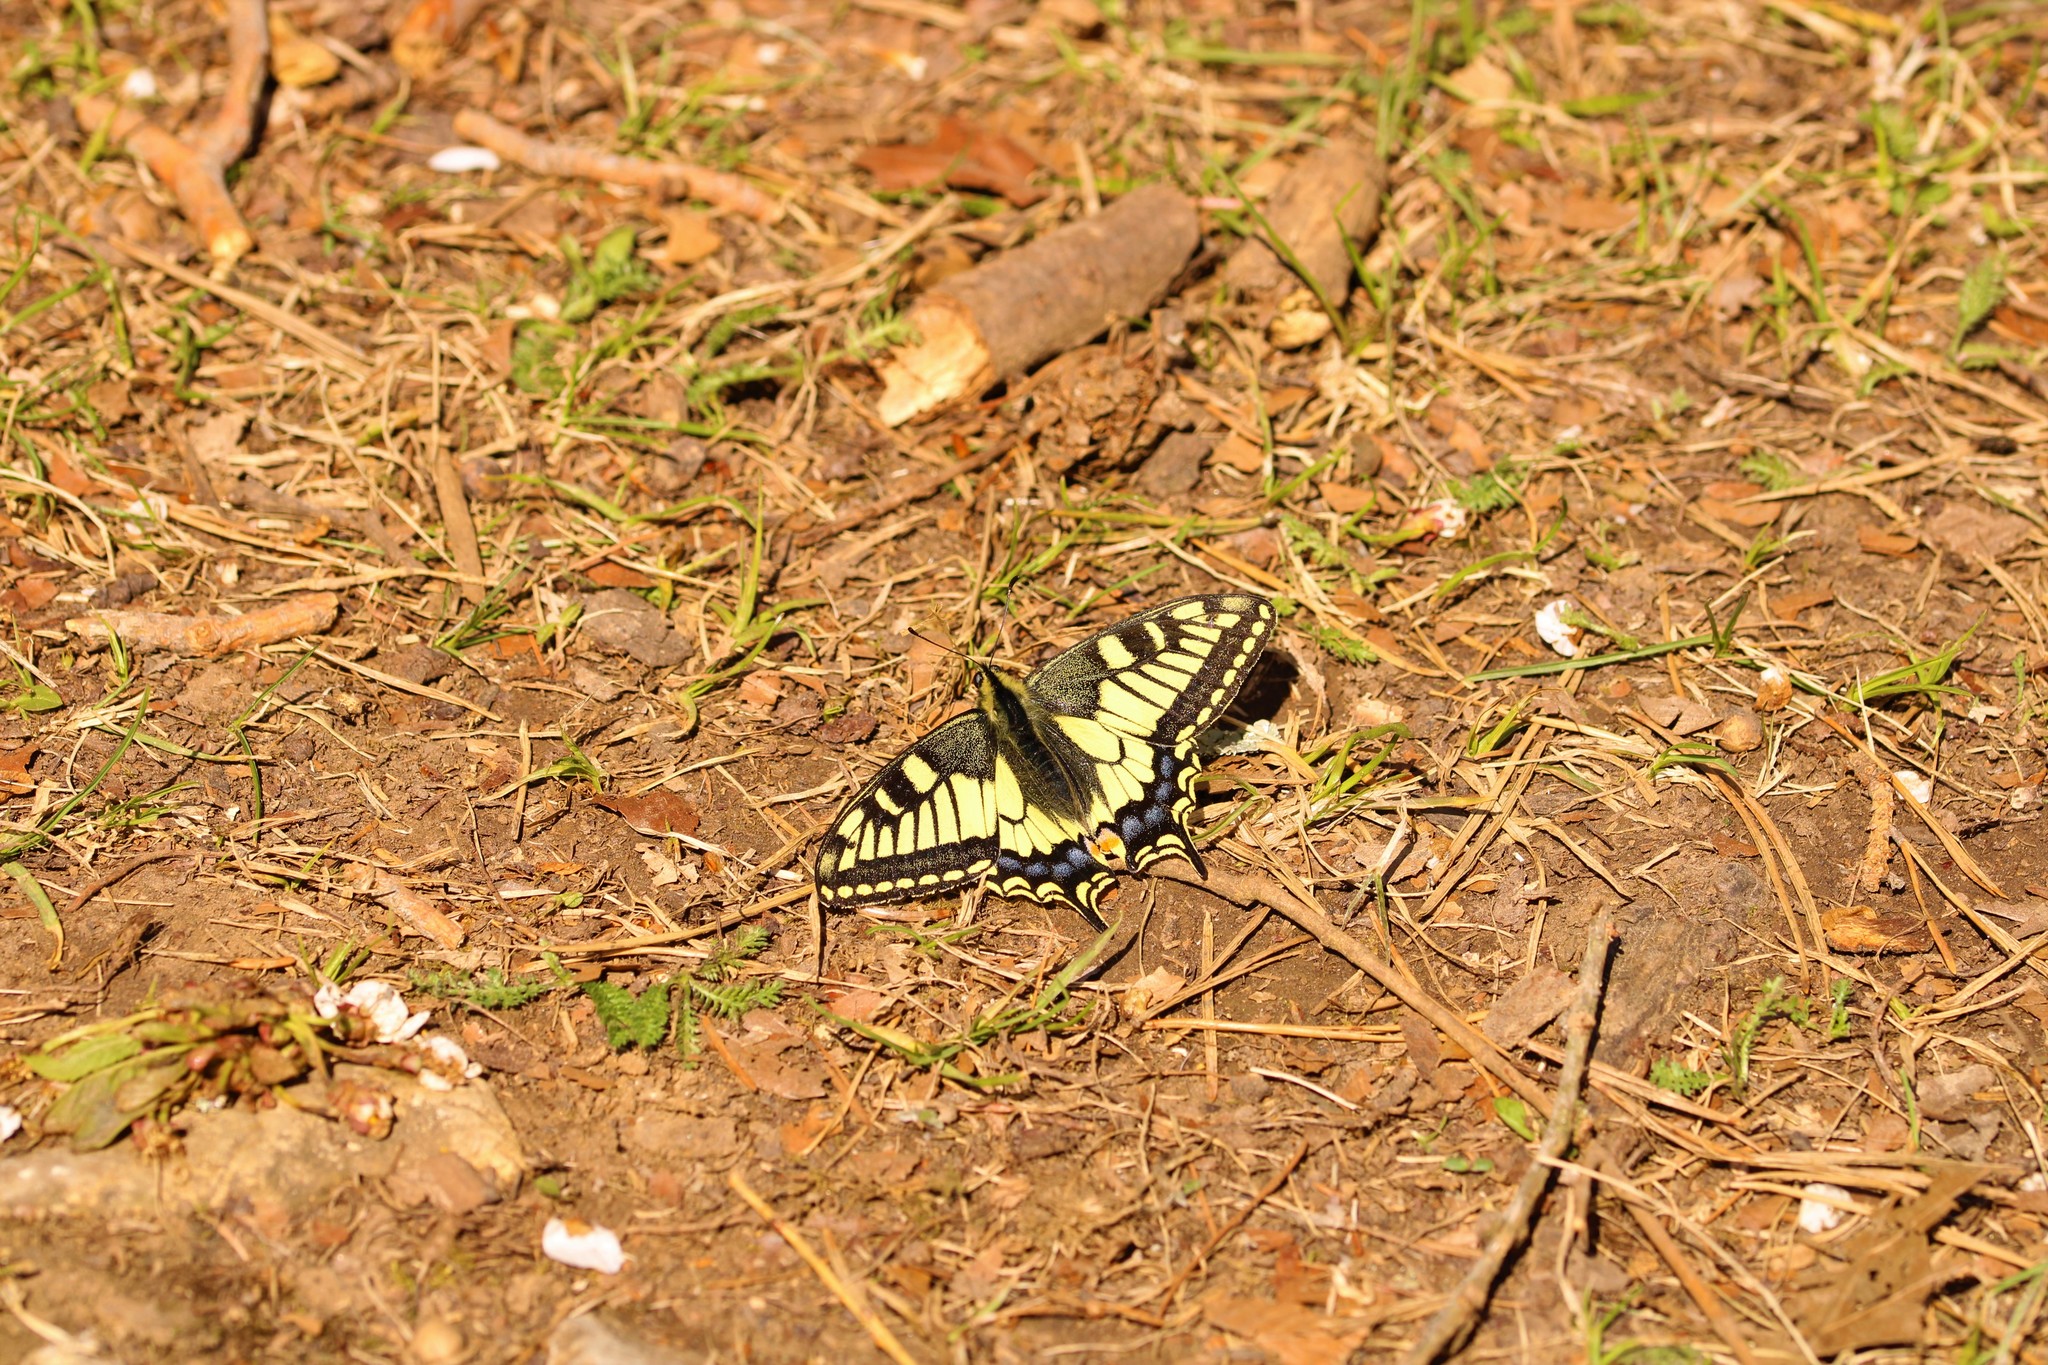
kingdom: Animalia
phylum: Arthropoda
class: Insecta
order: Lepidoptera
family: Papilionidae
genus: Papilio
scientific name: Papilio machaon
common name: Swallowtail
